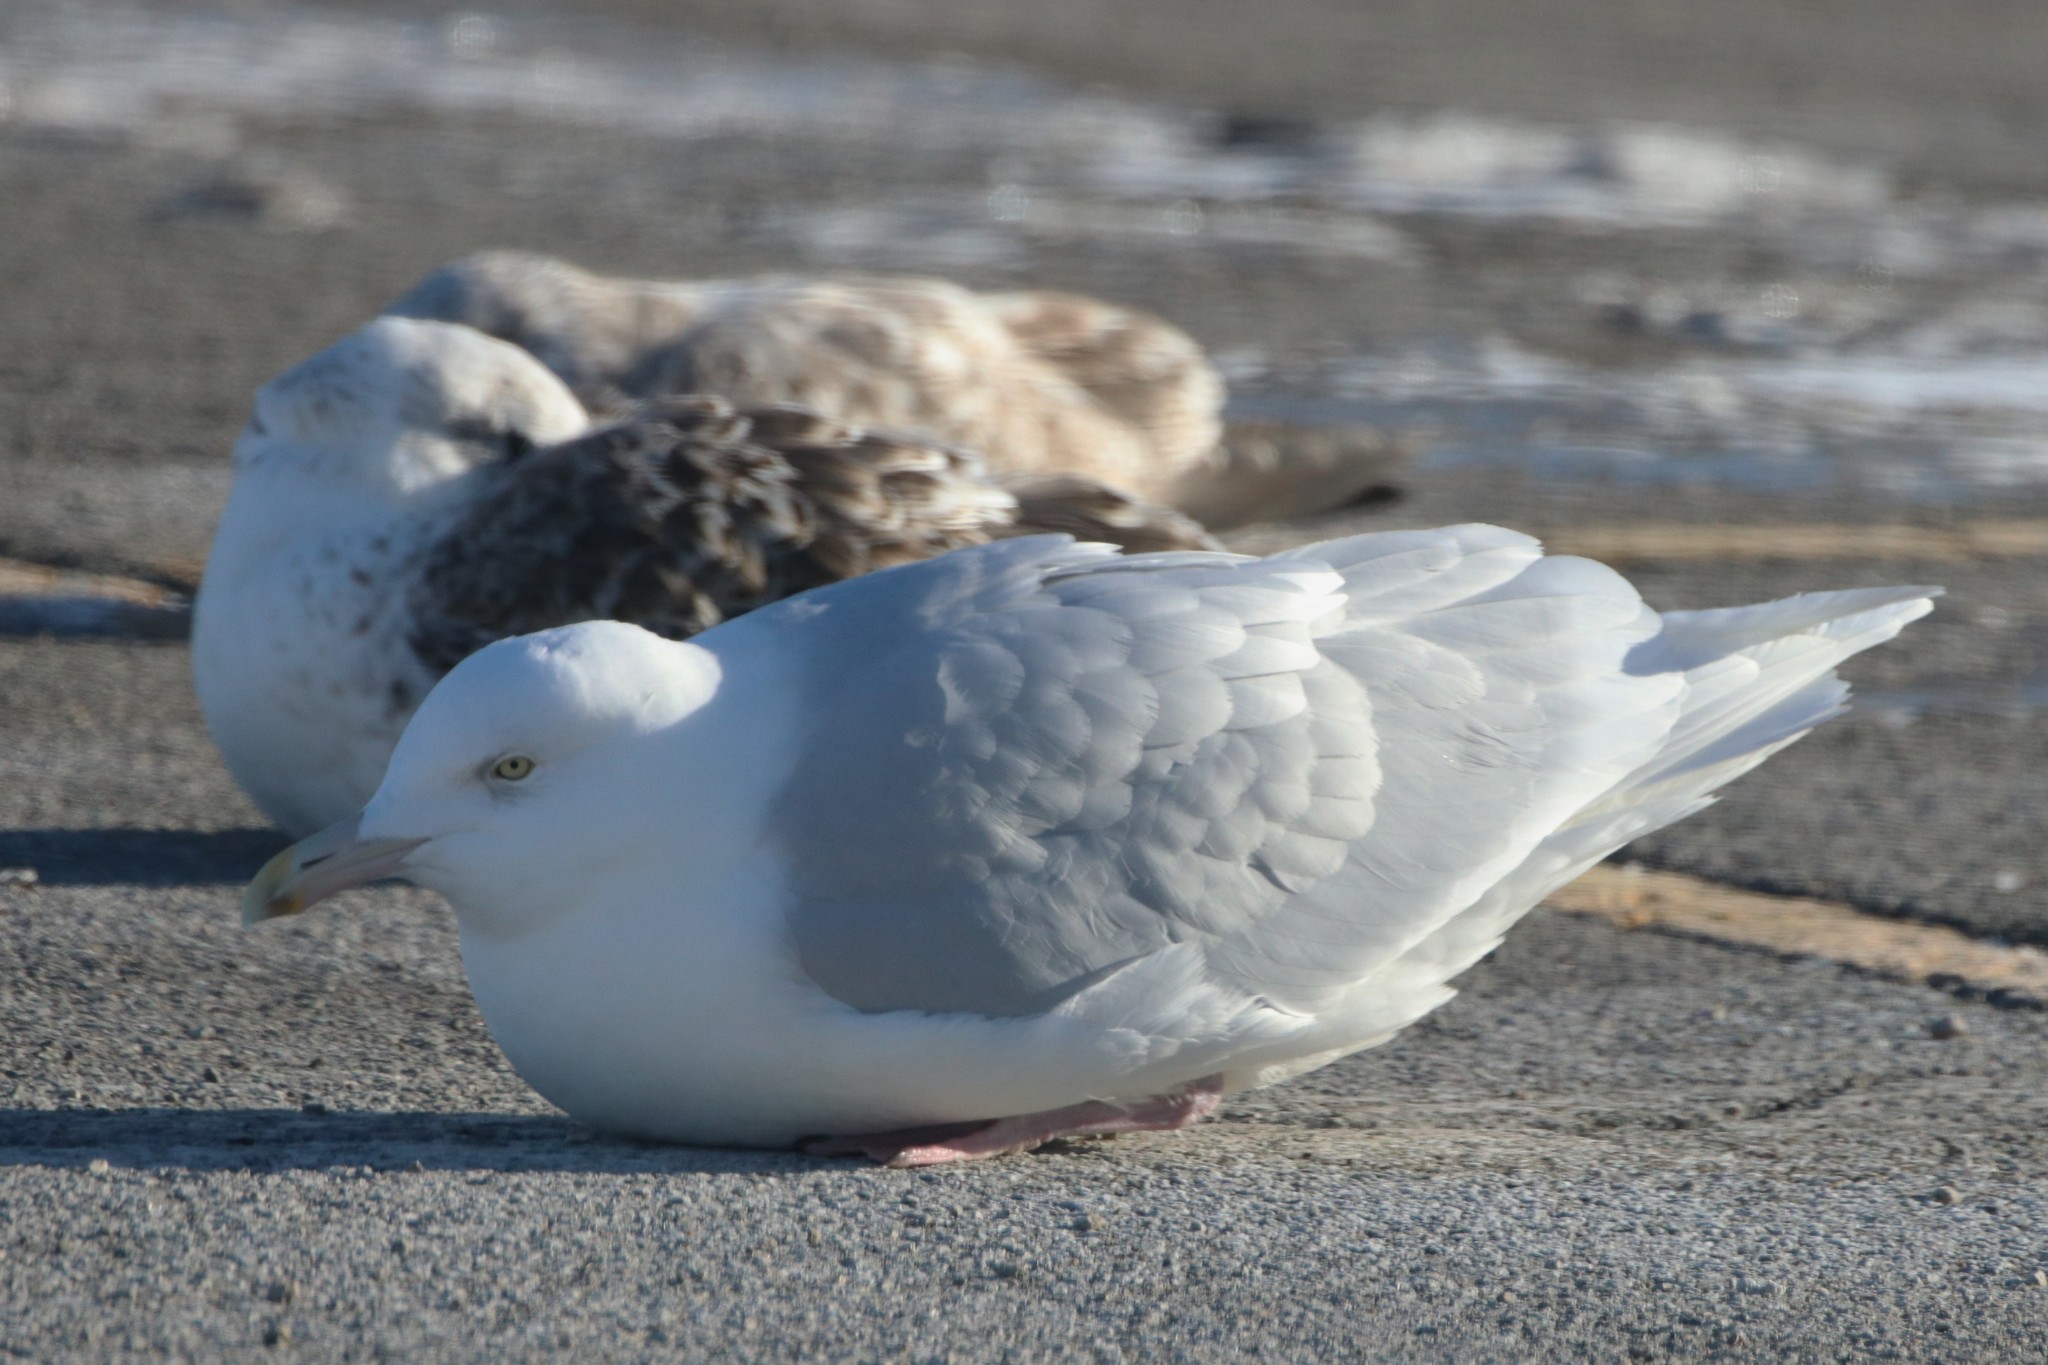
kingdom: Animalia
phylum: Chordata
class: Aves
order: Charadriiformes
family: Laridae
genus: Larus
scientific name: Larus hyperboreus
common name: Glaucous gull
